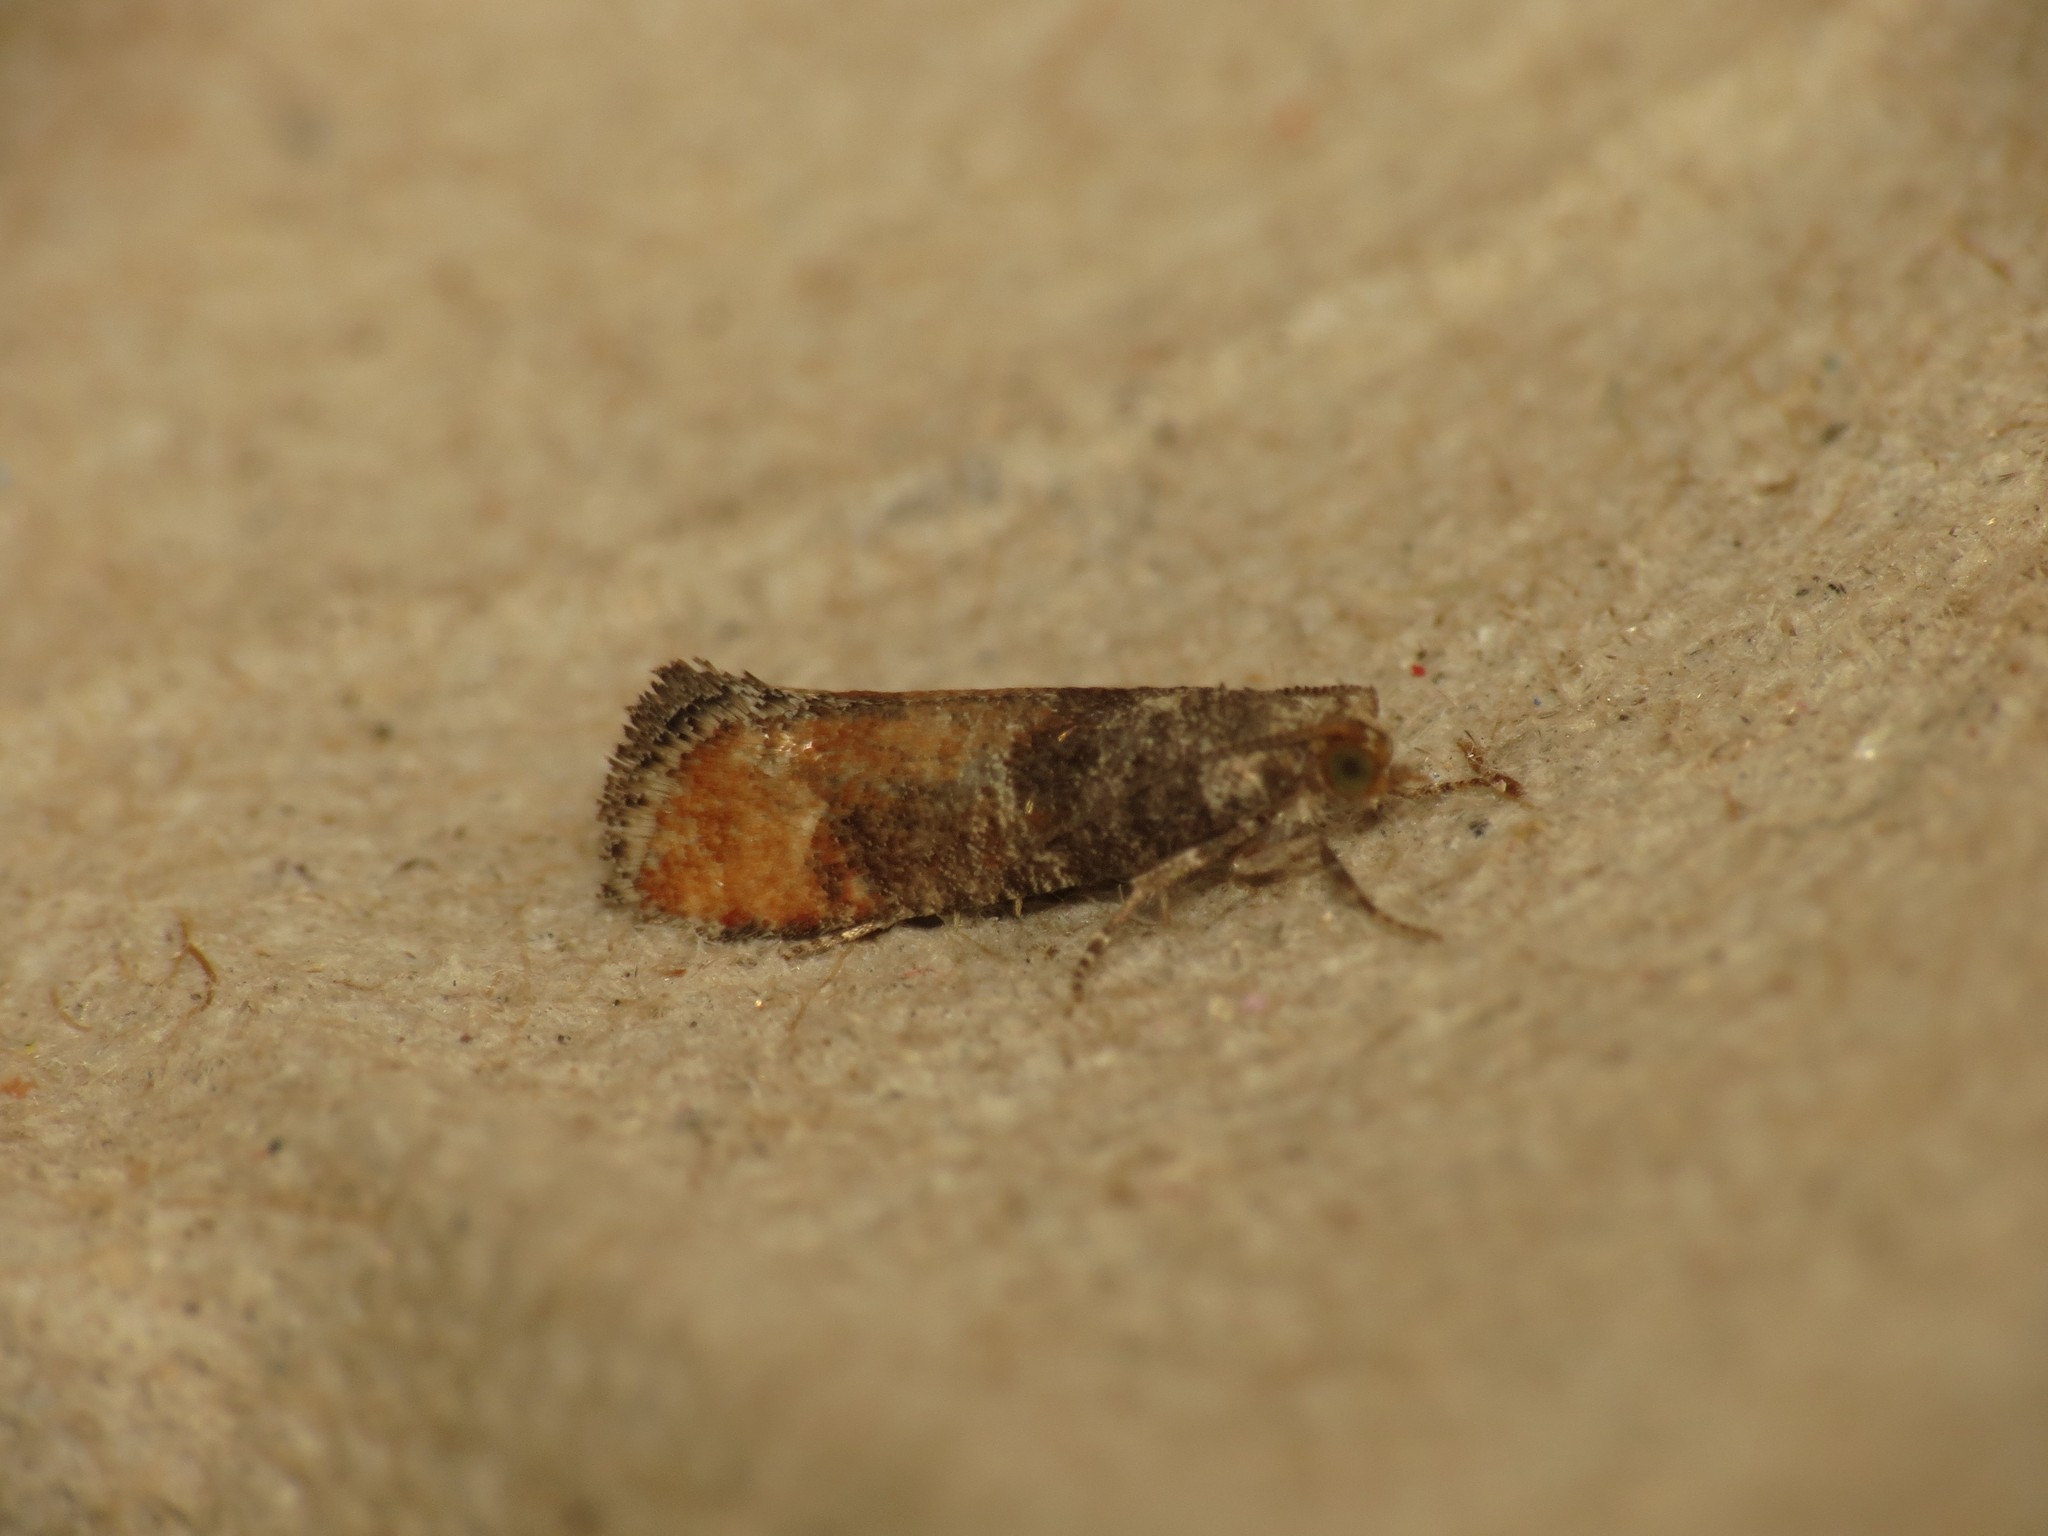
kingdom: Animalia
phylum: Arthropoda
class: Insecta
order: Lepidoptera
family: Tortricidae
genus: Clavigesta
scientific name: Clavigesta purdeyi
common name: Pine leaf-mining moth
